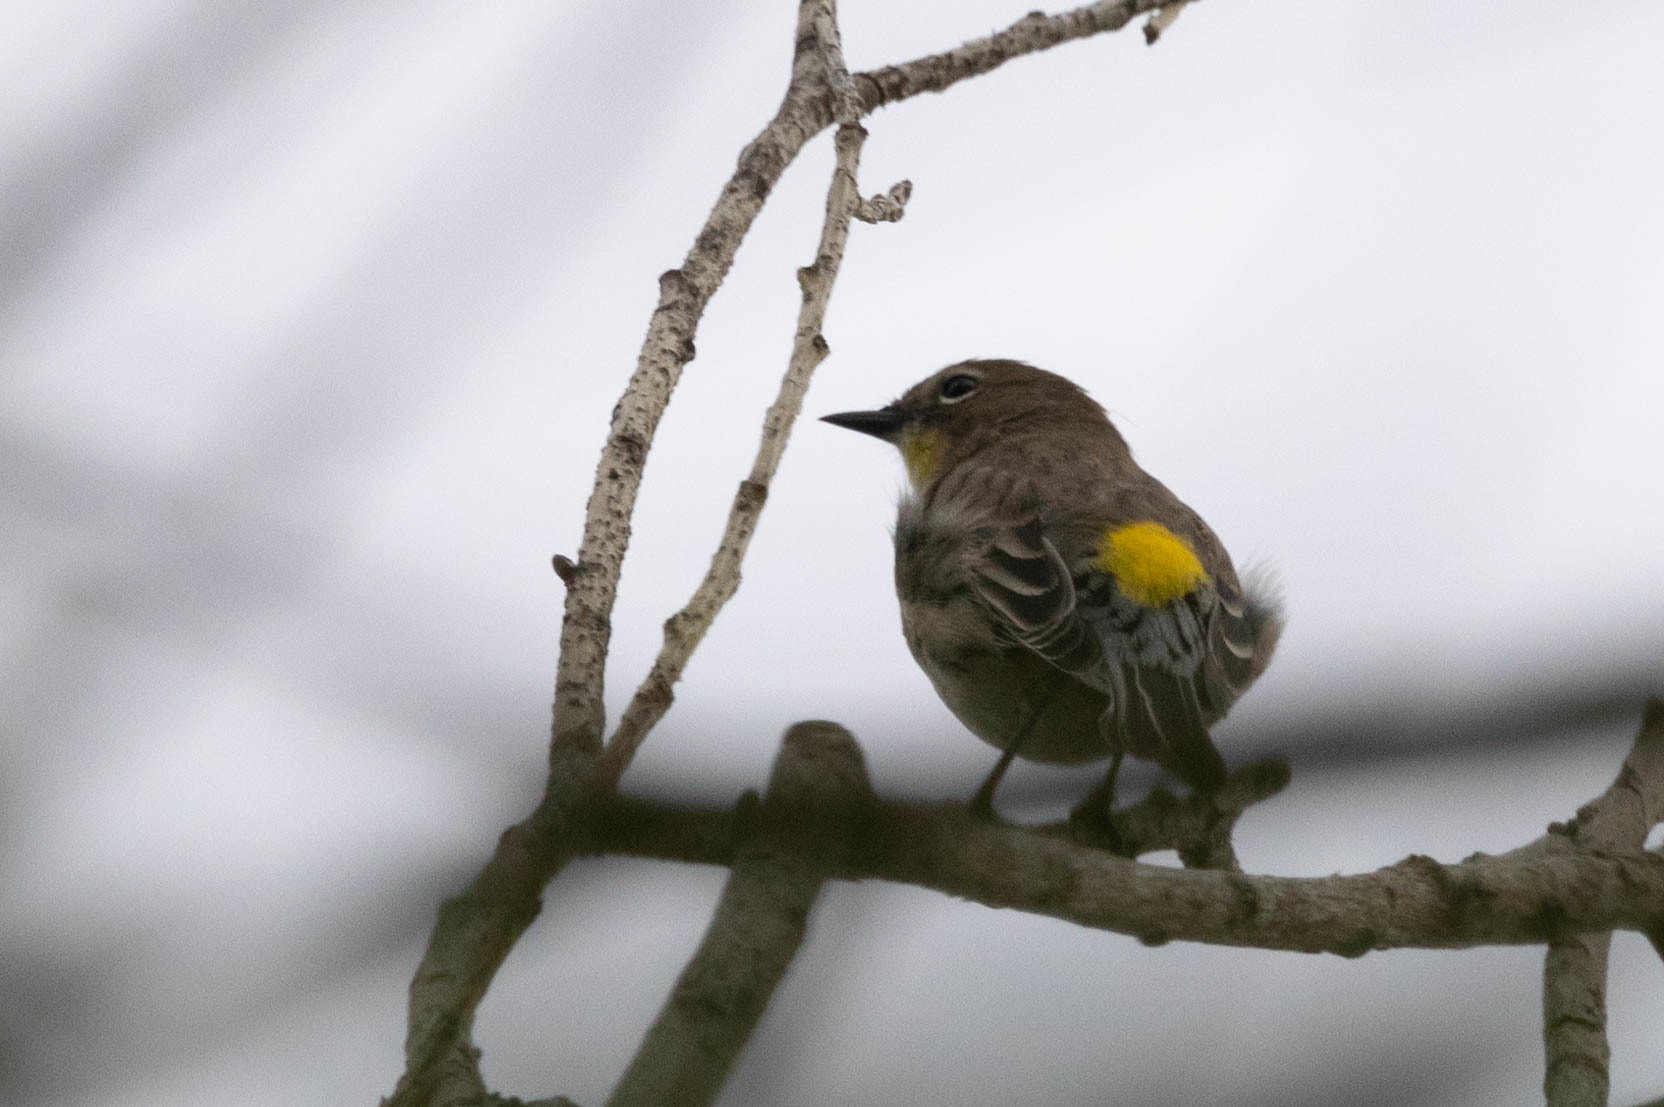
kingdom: Animalia
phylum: Chordata
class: Aves
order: Passeriformes
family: Parulidae
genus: Setophaga
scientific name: Setophaga coronata
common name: Myrtle warbler
